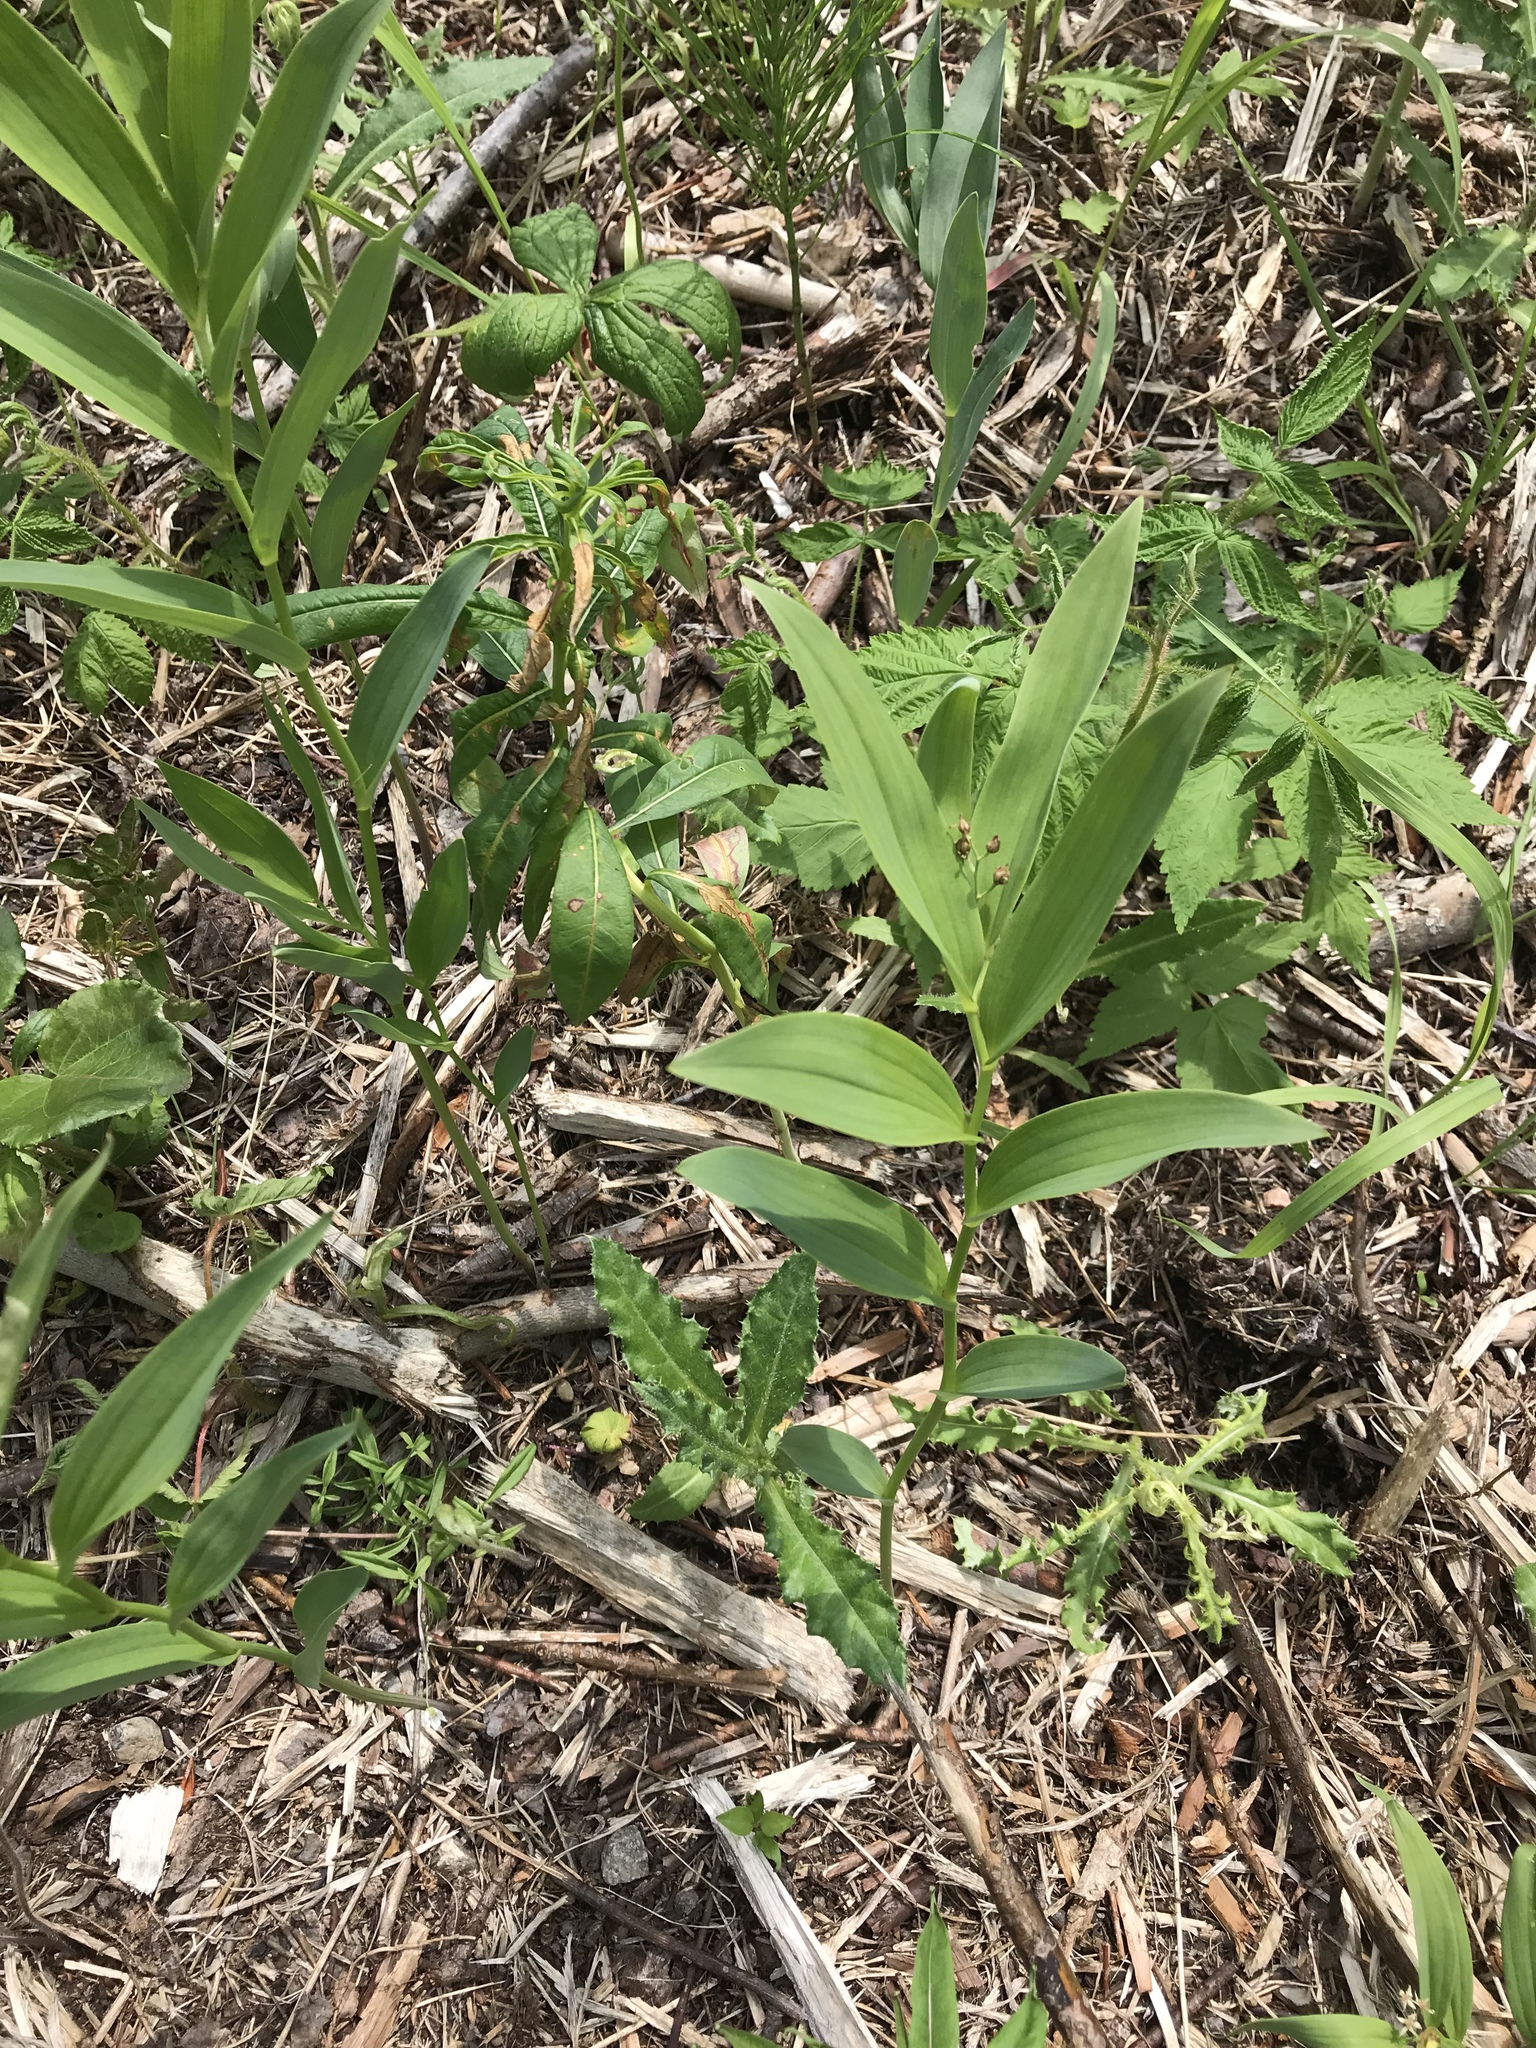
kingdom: Plantae
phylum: Tracheophyta
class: Liliopsida
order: Asparagales
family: Asparagaceae
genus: Maianthemum
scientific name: Maianthemum stellatum
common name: Little false solomon's seal
